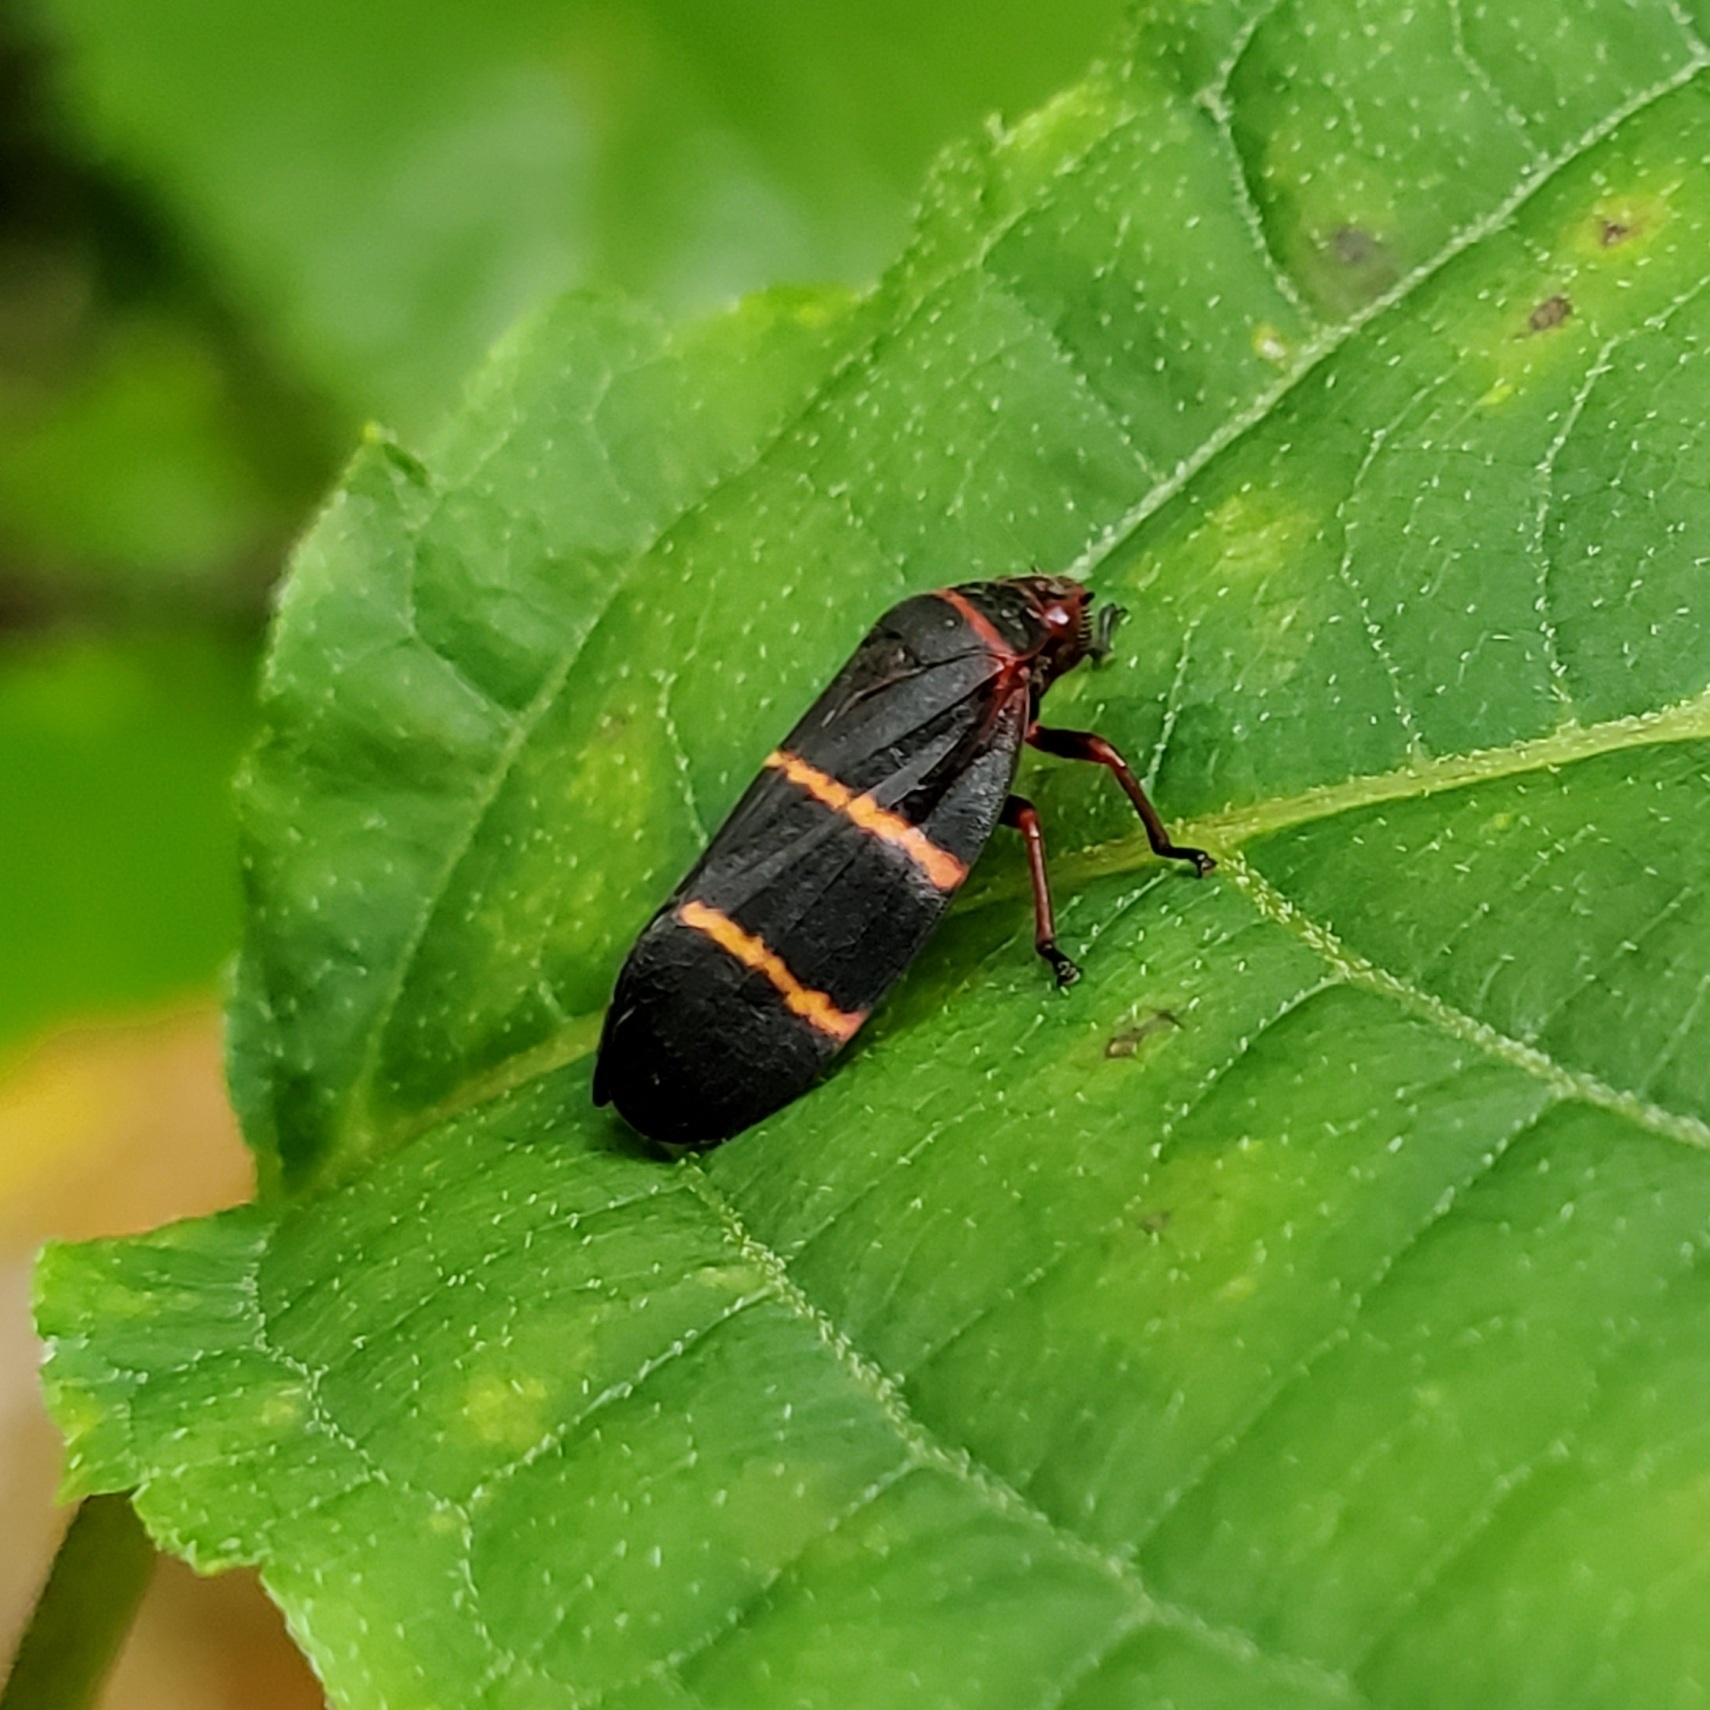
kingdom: Animalia
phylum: Arthropoda
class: Insecta
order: Hemiptera
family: Cercopidae
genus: Prosapia
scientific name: Prosapia bicincta
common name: Twolined spittlebug
